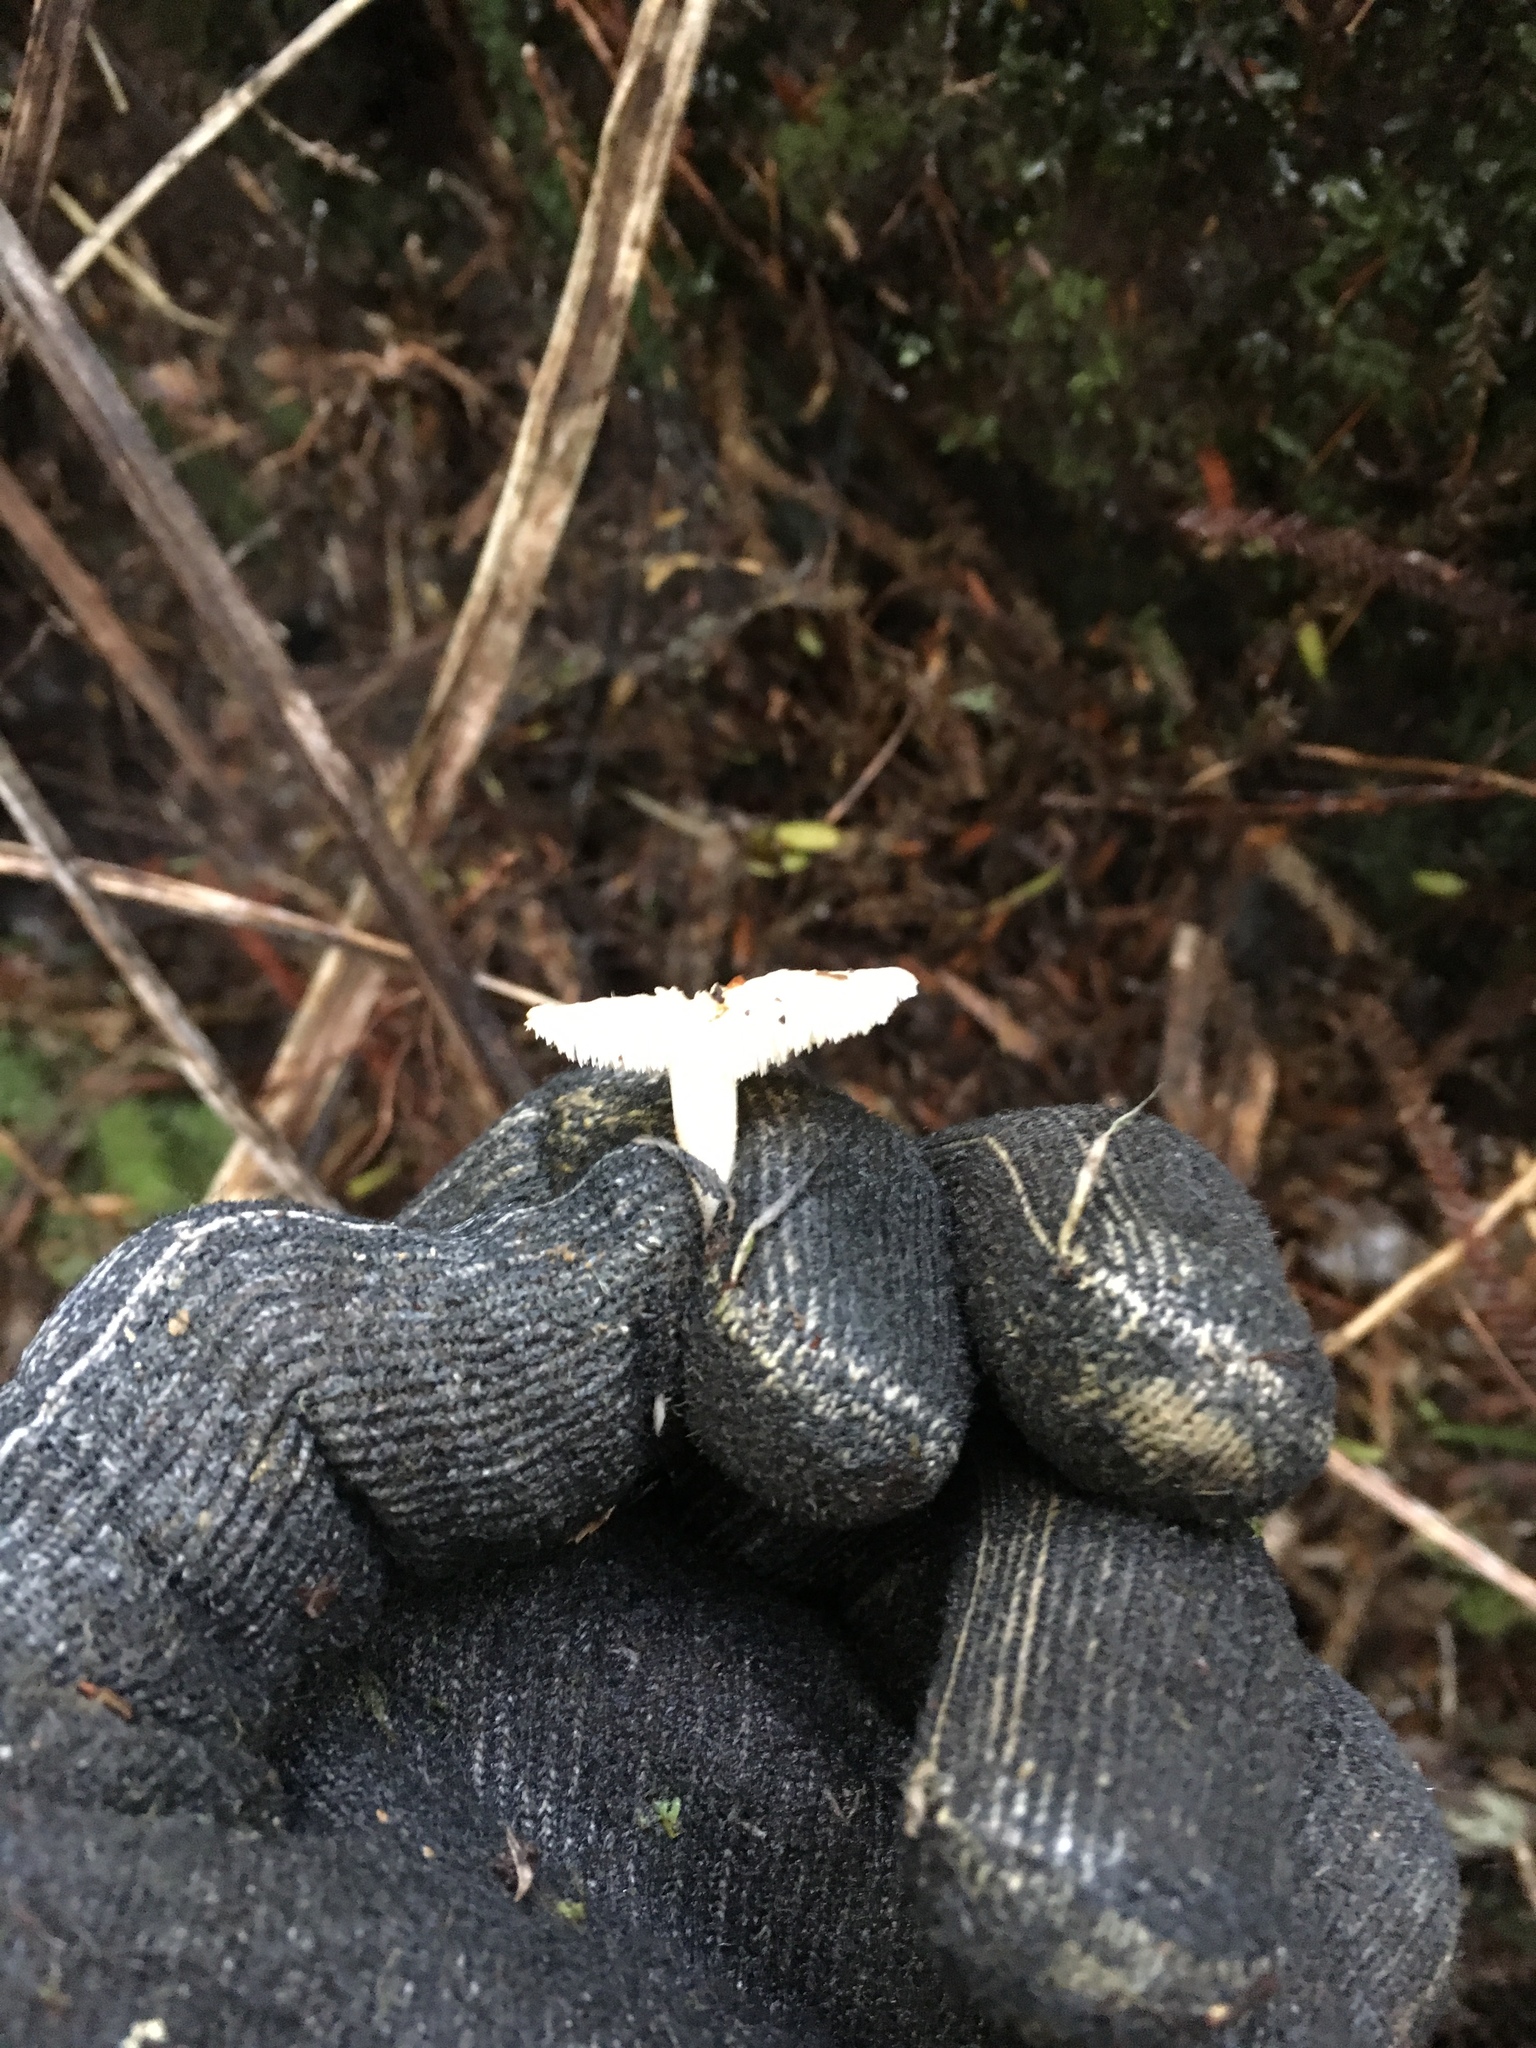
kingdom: Fungi
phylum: Basidiomycota
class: Agaricomycetes
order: Cantharellales
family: Hydnaceae
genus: Hydnum
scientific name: Hydnum ambustum
